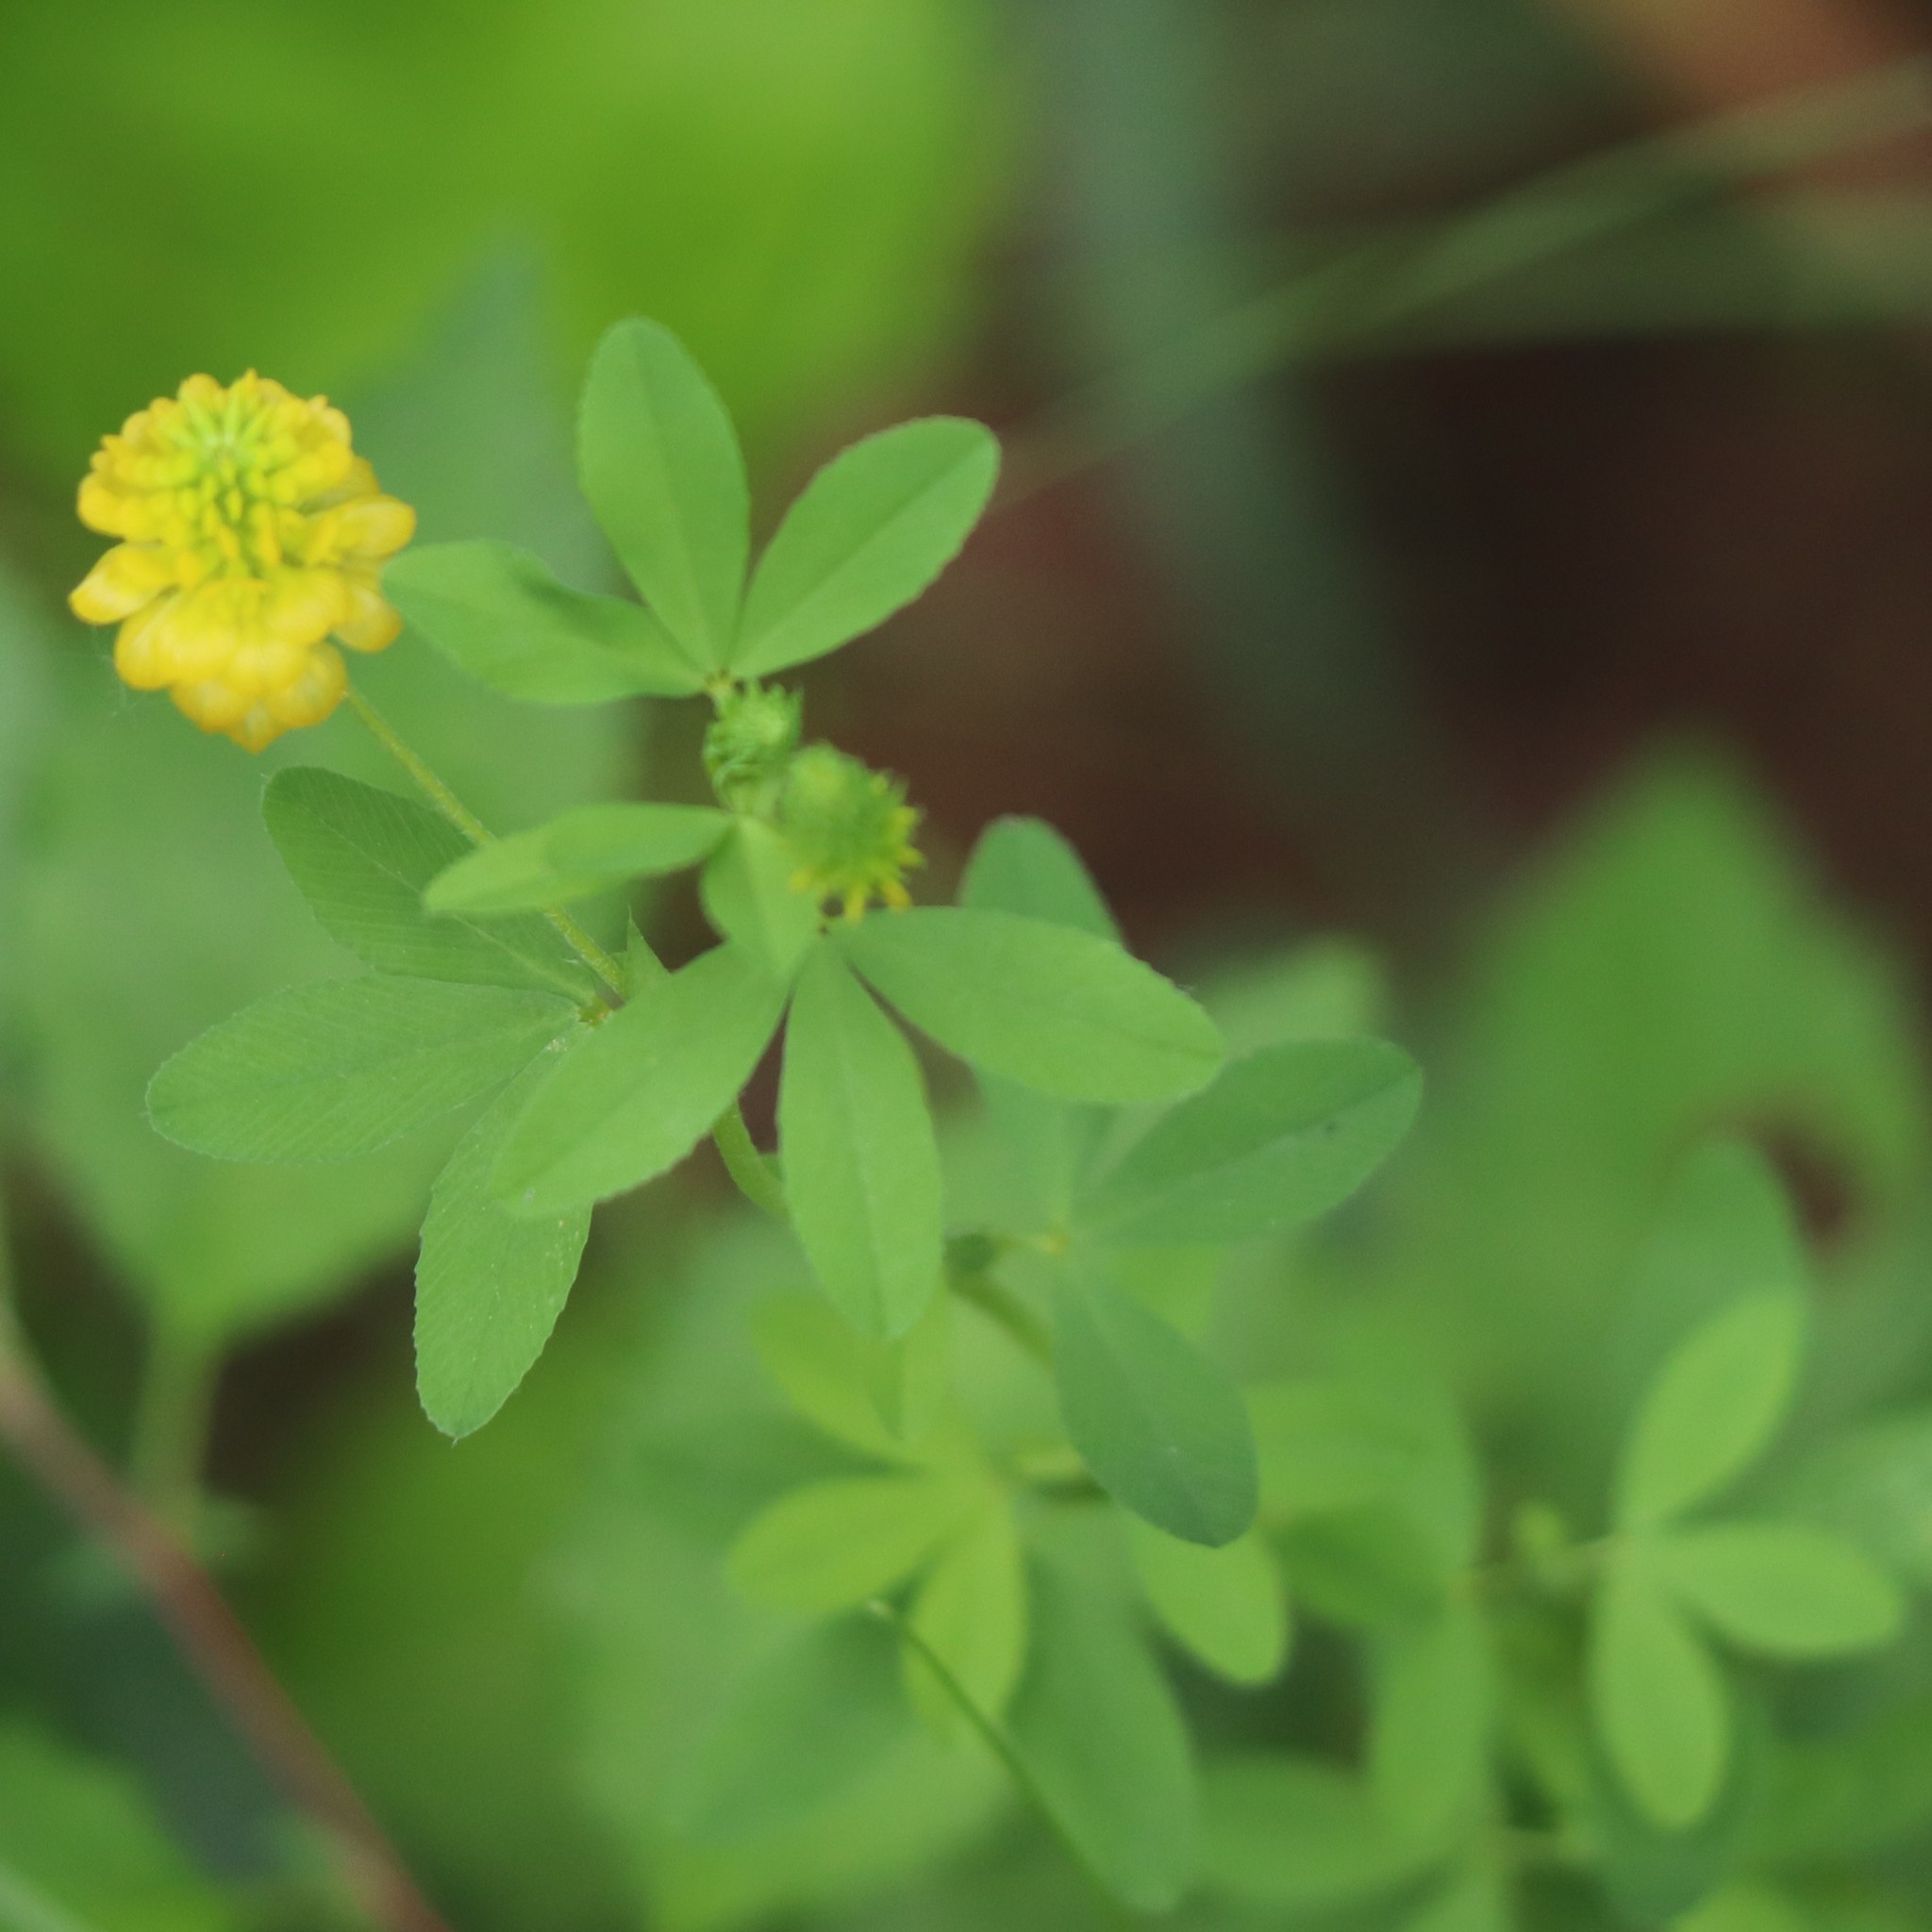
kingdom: Plantae
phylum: Tracheophyta
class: Magnoliopsida
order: Fabales
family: Fabaceae
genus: Trifolium
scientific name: Trifolium aureum
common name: Golden clover
